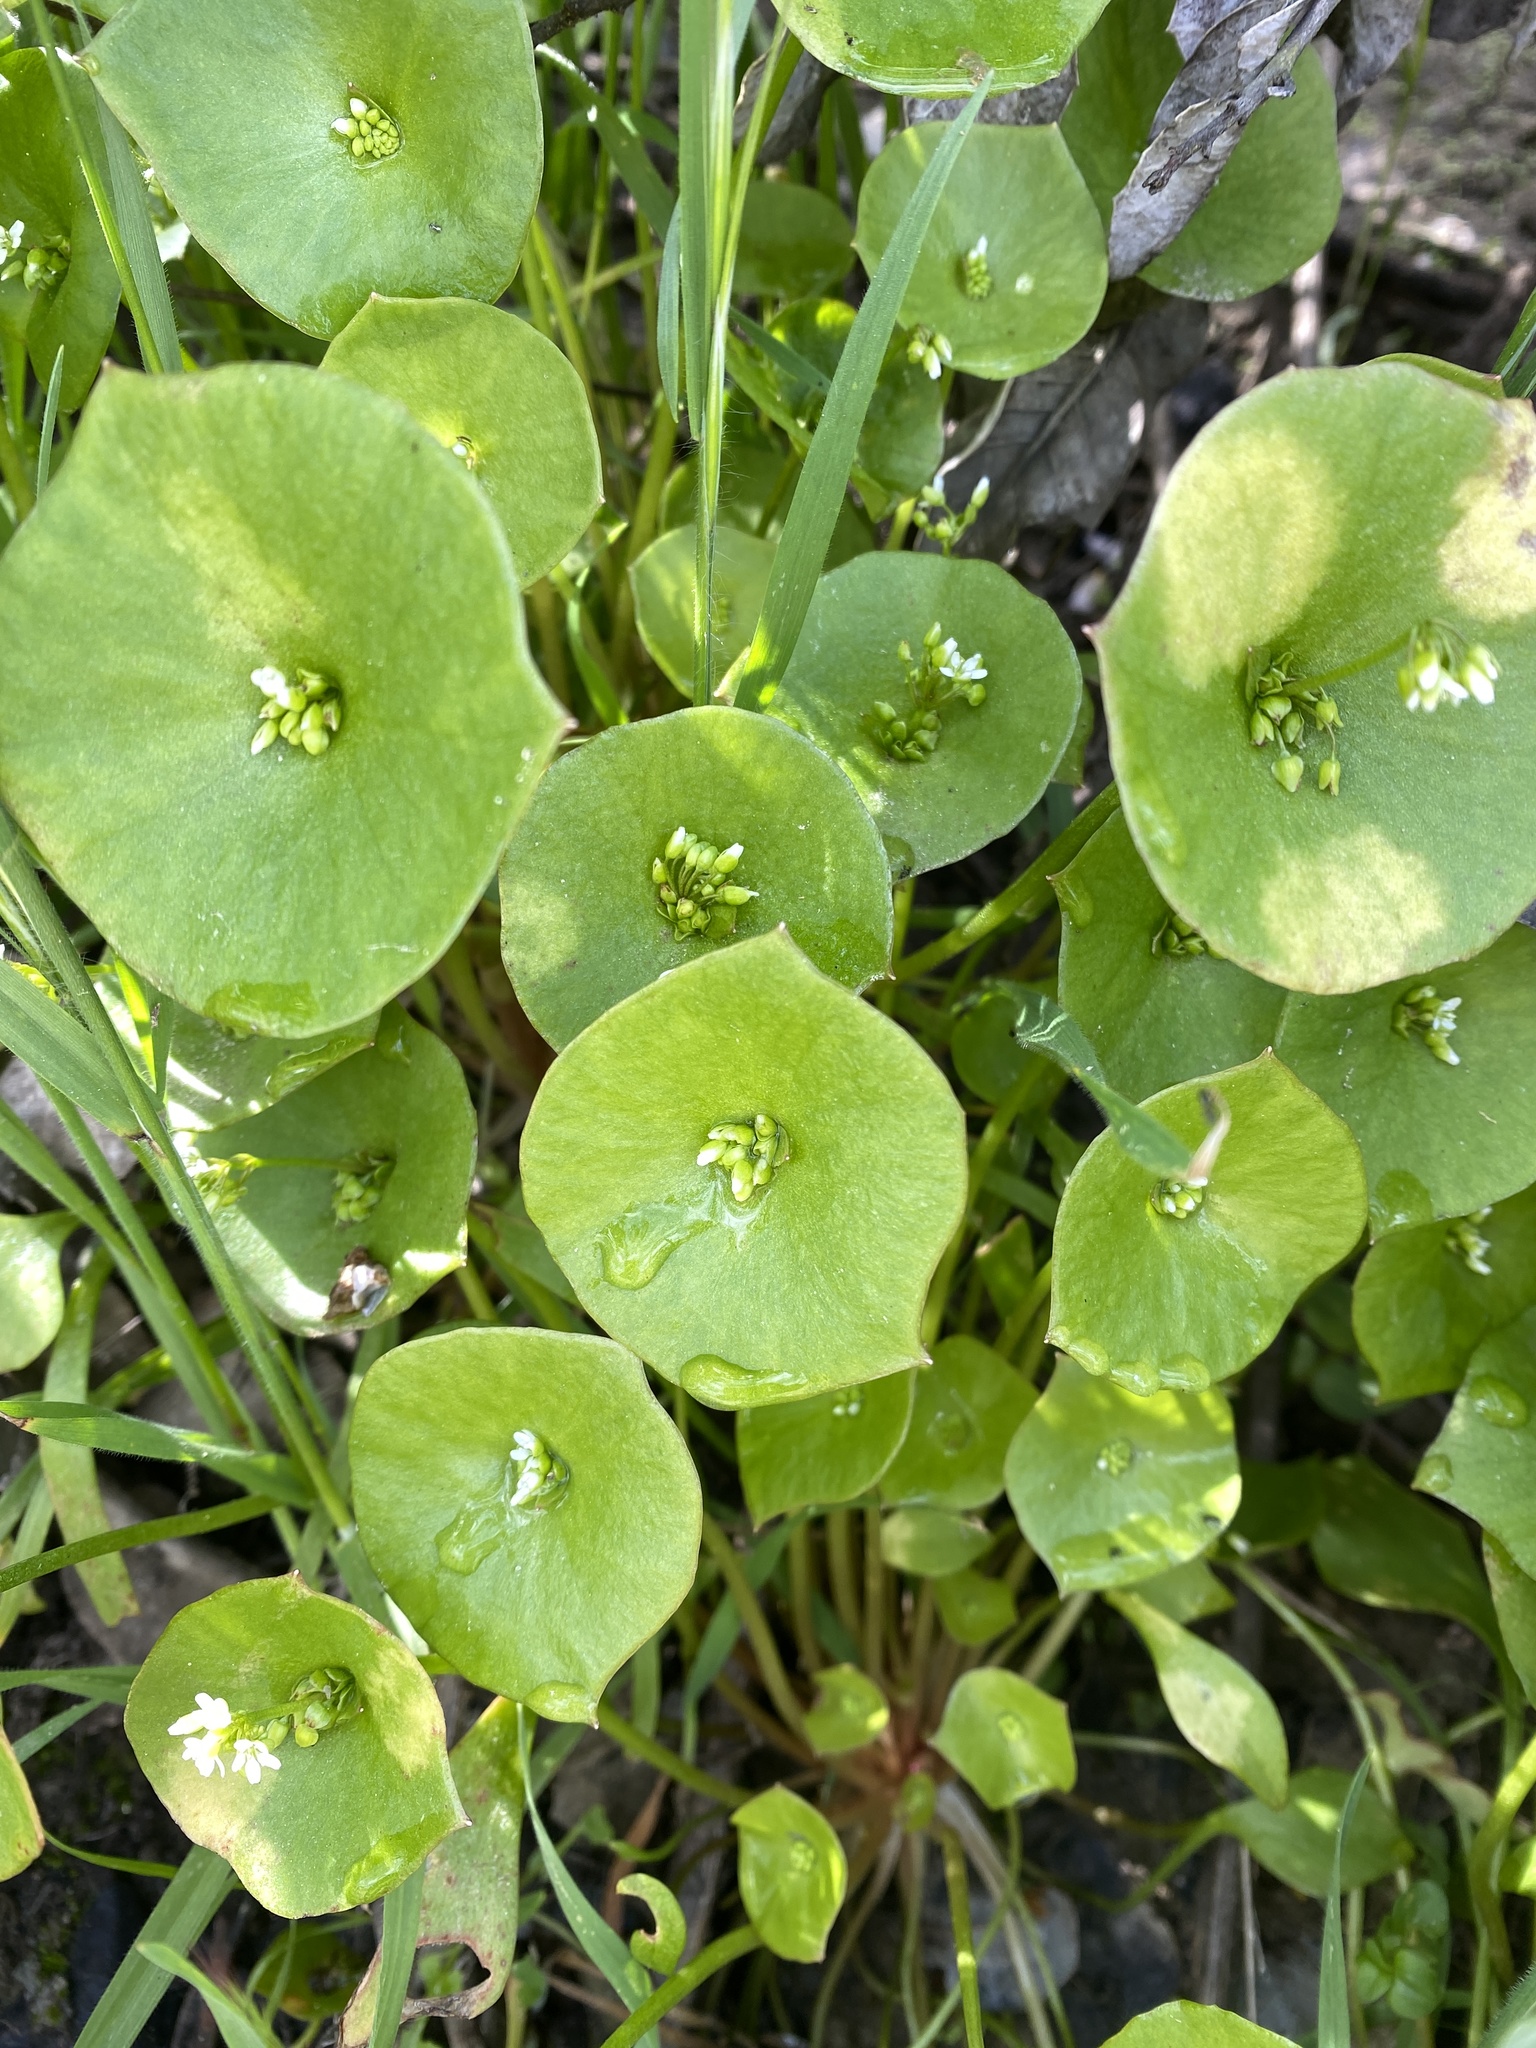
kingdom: Plantae
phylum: Tracheophyta
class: Magnoliopsida
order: Caryophyllales
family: Montiaceae
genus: Claytonia
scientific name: Claytonia perfoliata
